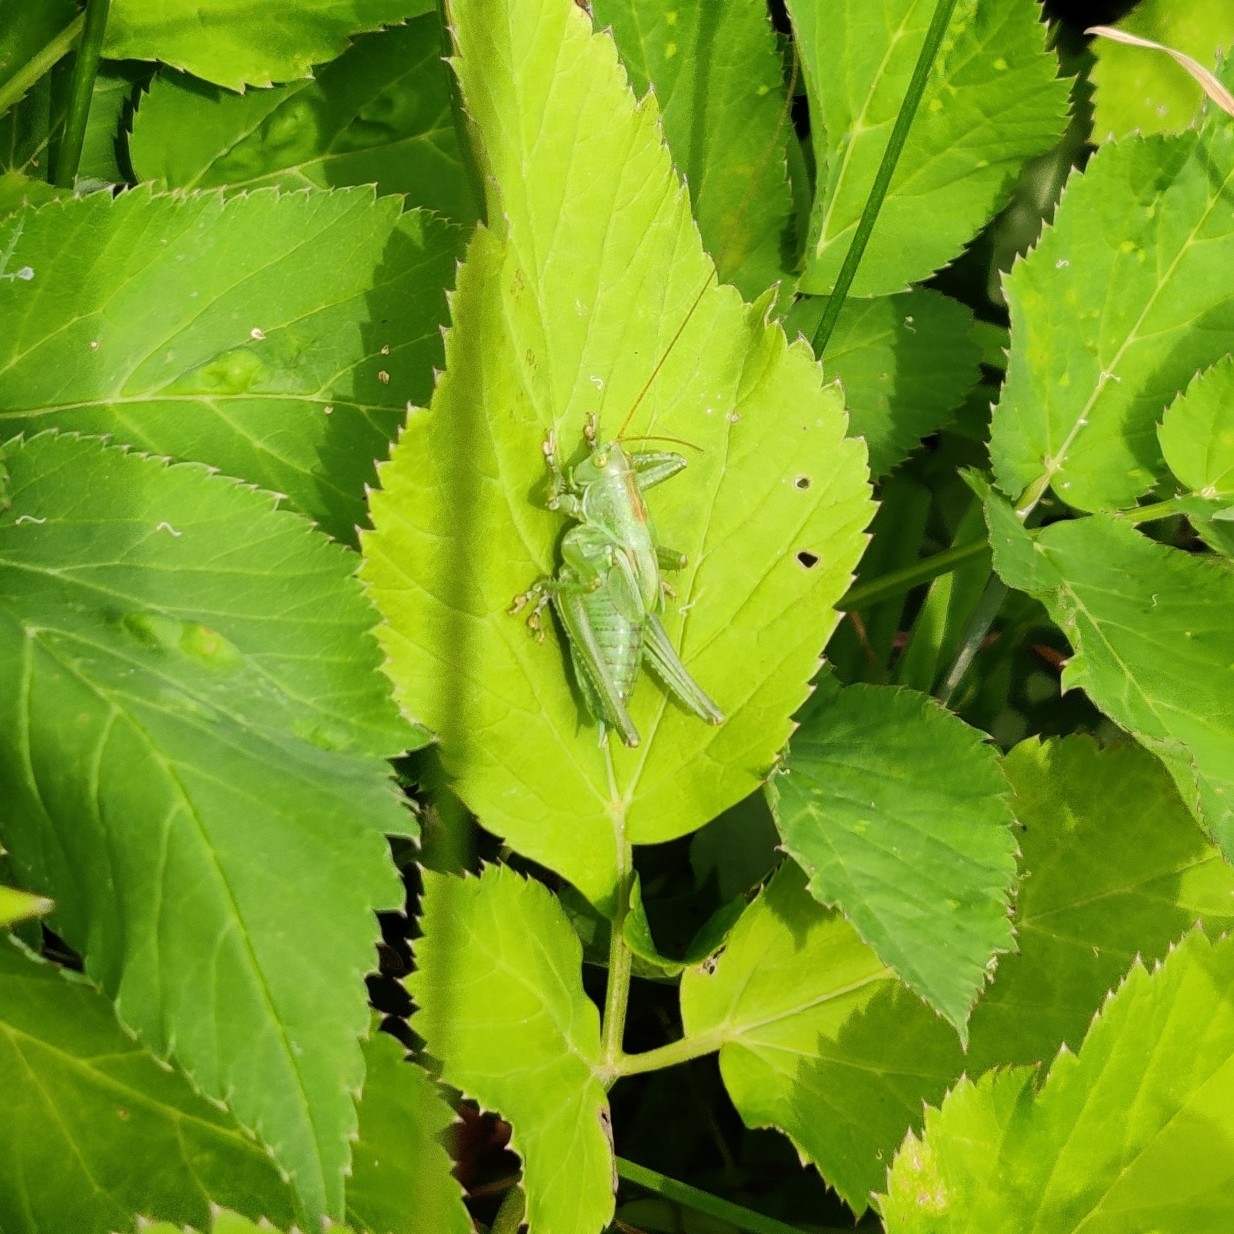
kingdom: Animalia
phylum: Arthropoda
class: Insecta
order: Orthoptera
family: Tettigoniidae
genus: Tettigonia
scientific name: Tettigonia cantans
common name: Upland green bush-cricket
